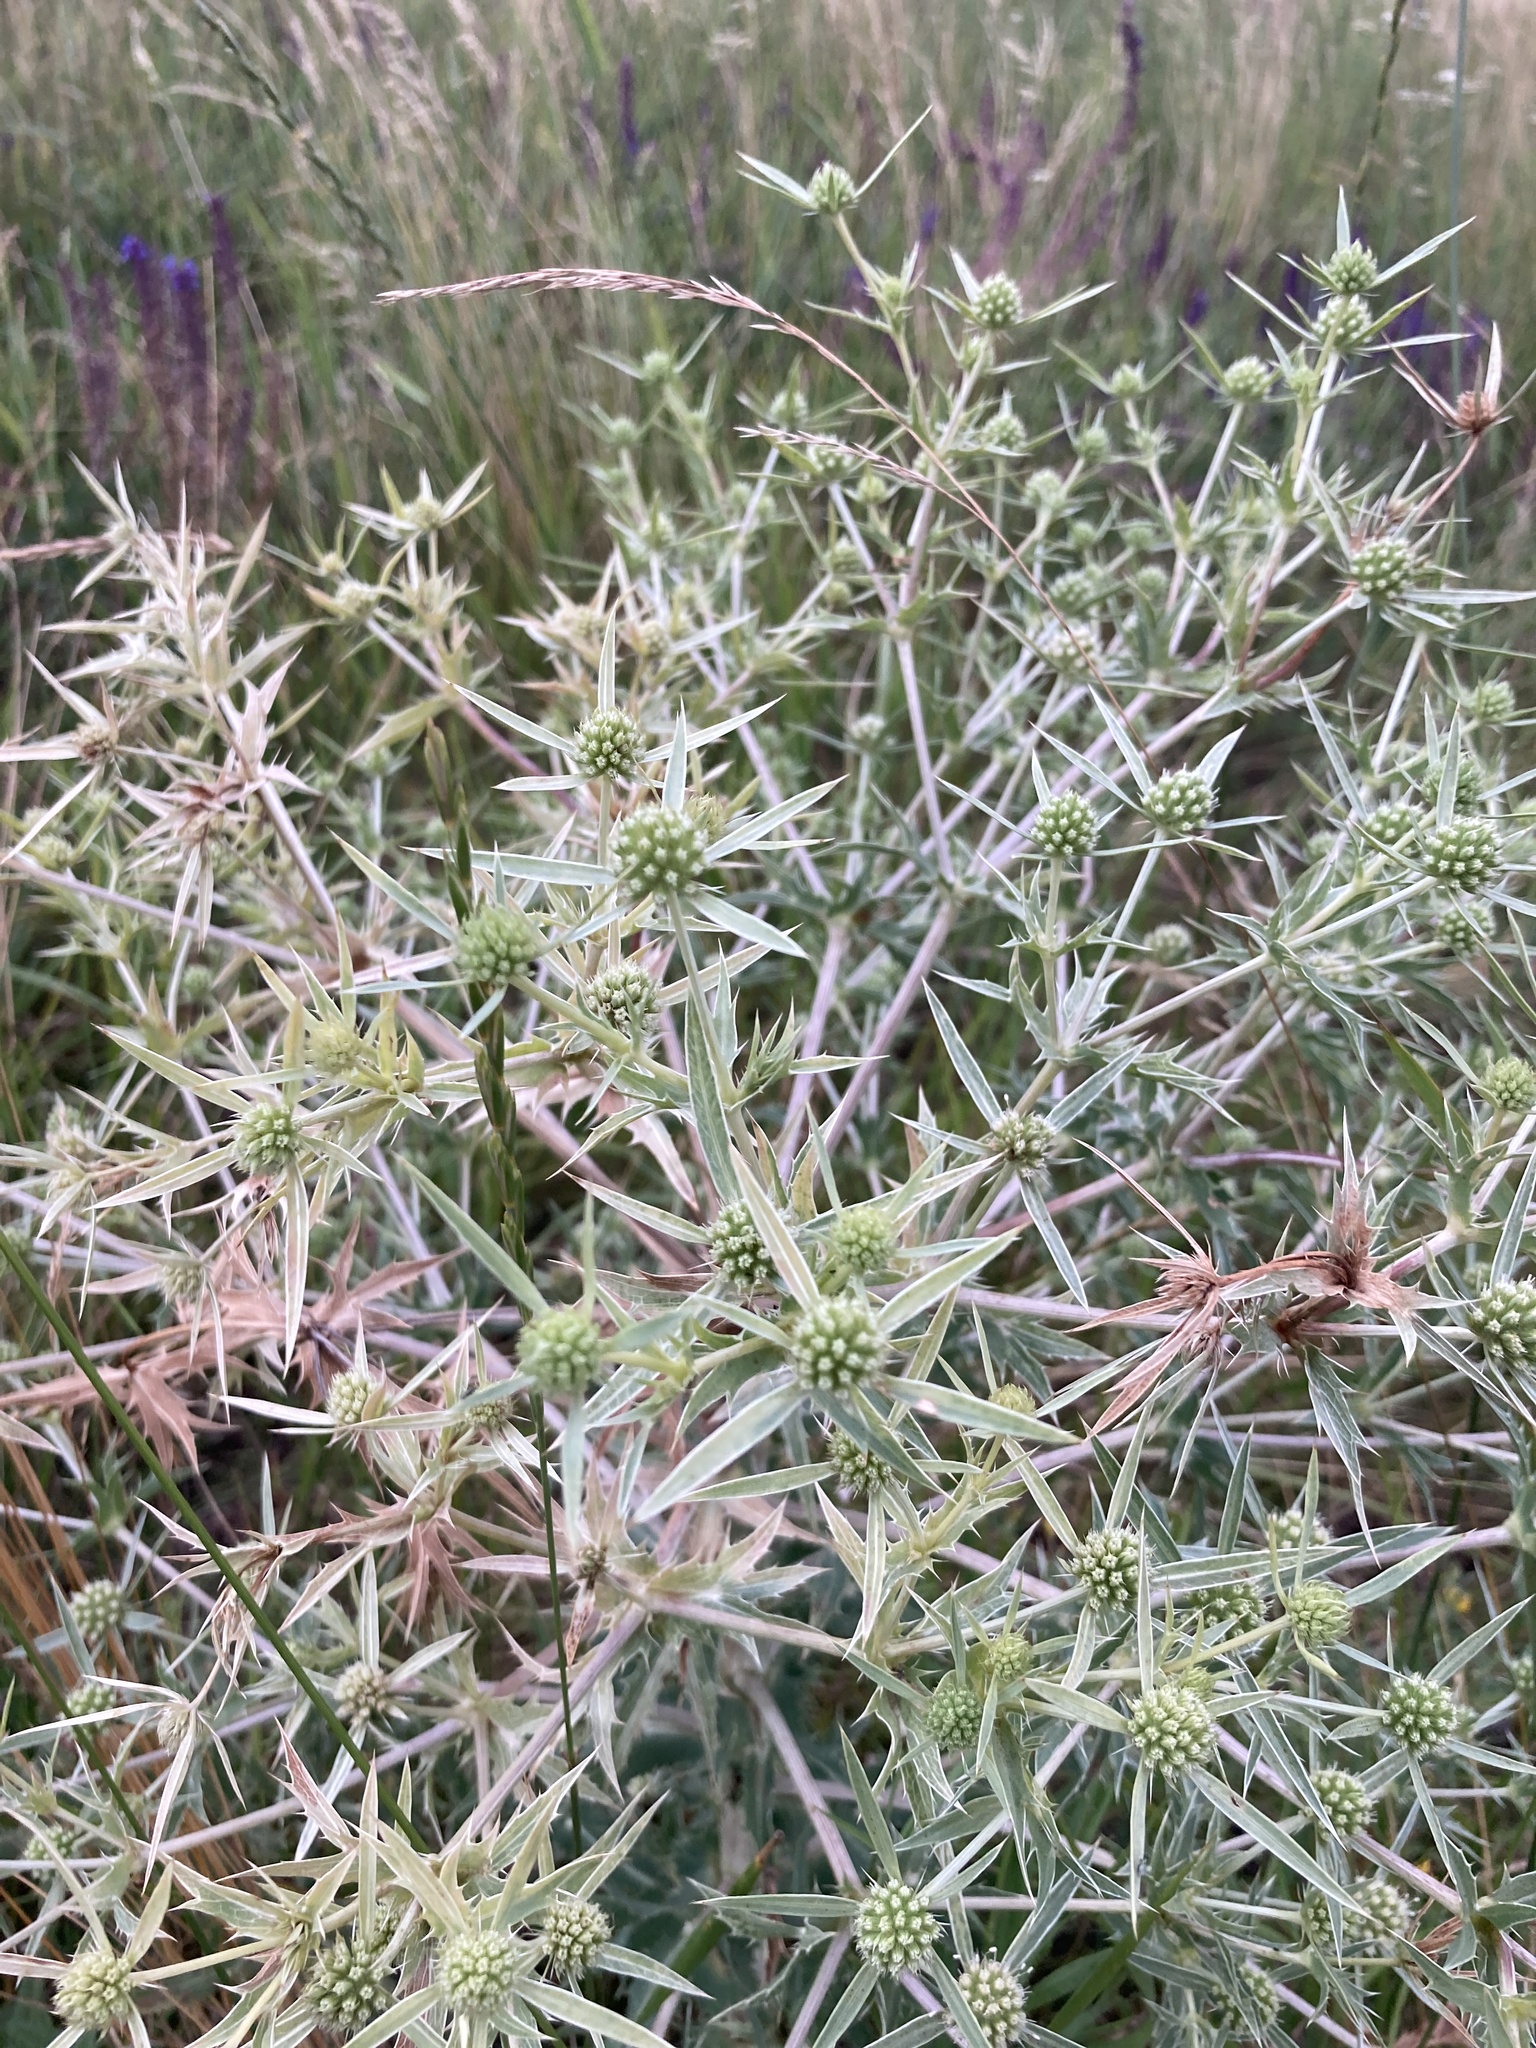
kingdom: Plantae
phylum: Tracheophyta
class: Magnoliopsida
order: Apiales
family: Apiaceae
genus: Eryngium
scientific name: Eryngium campestre
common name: Field eryngo
